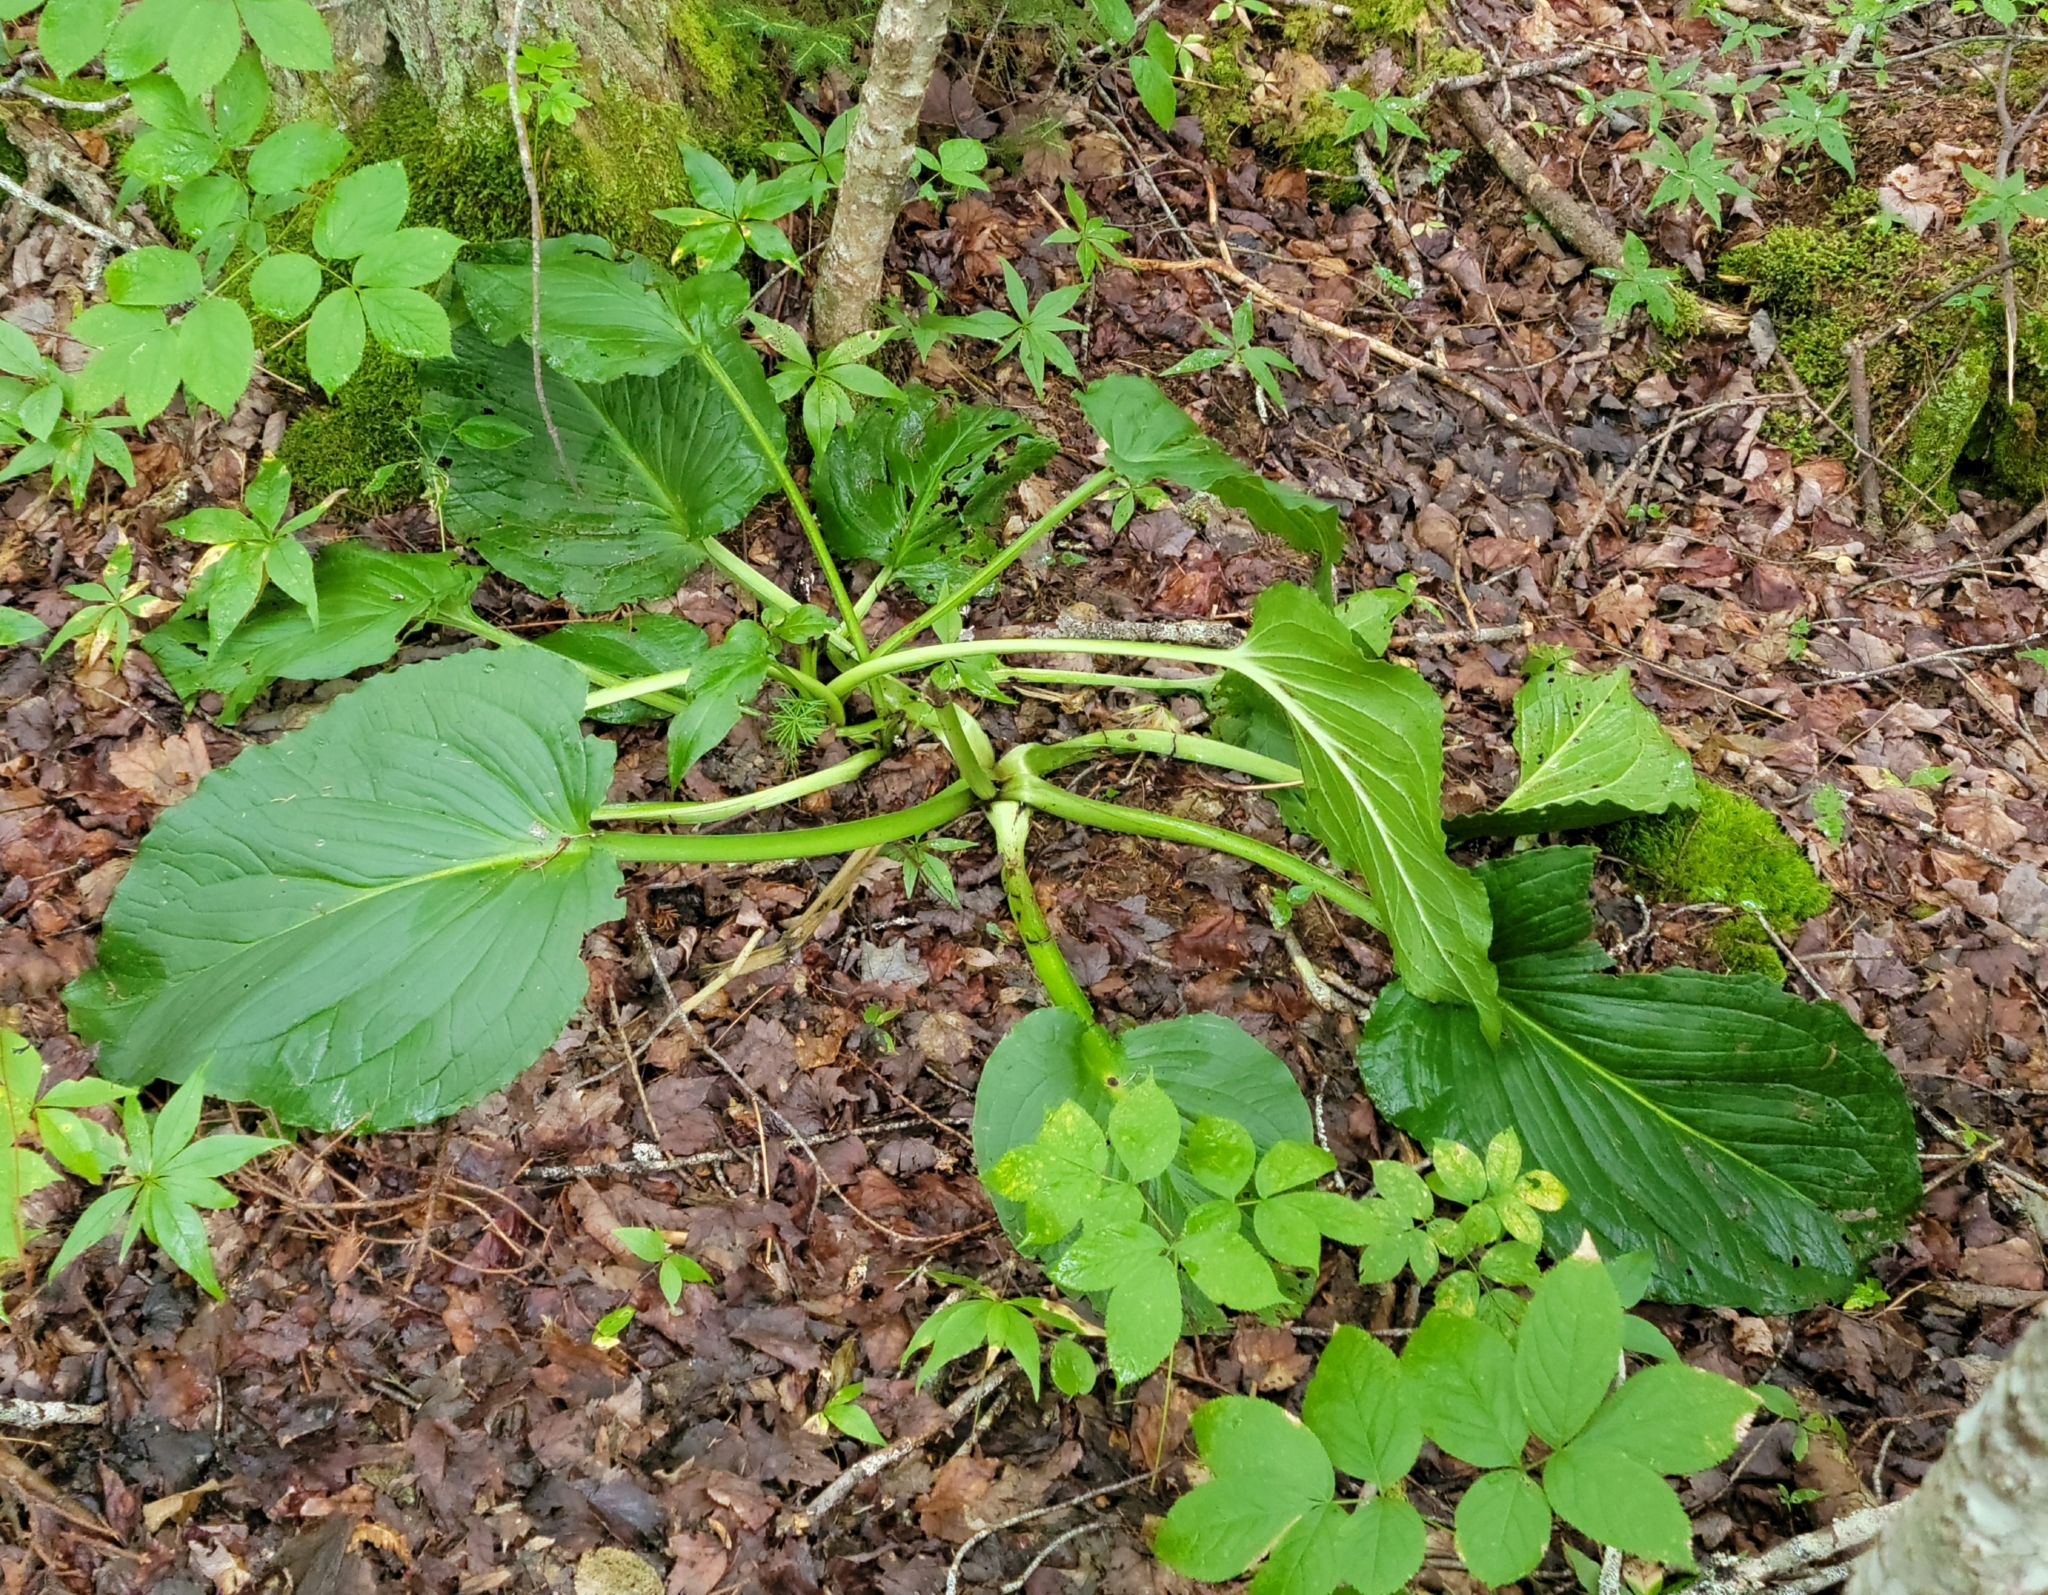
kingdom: Plantae
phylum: Tracheophyta
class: Liliopsida
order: Alismatales
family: Araceae
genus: Symplocarpus
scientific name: Symplocarpus foetidus
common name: Eastern skunk cabbage
